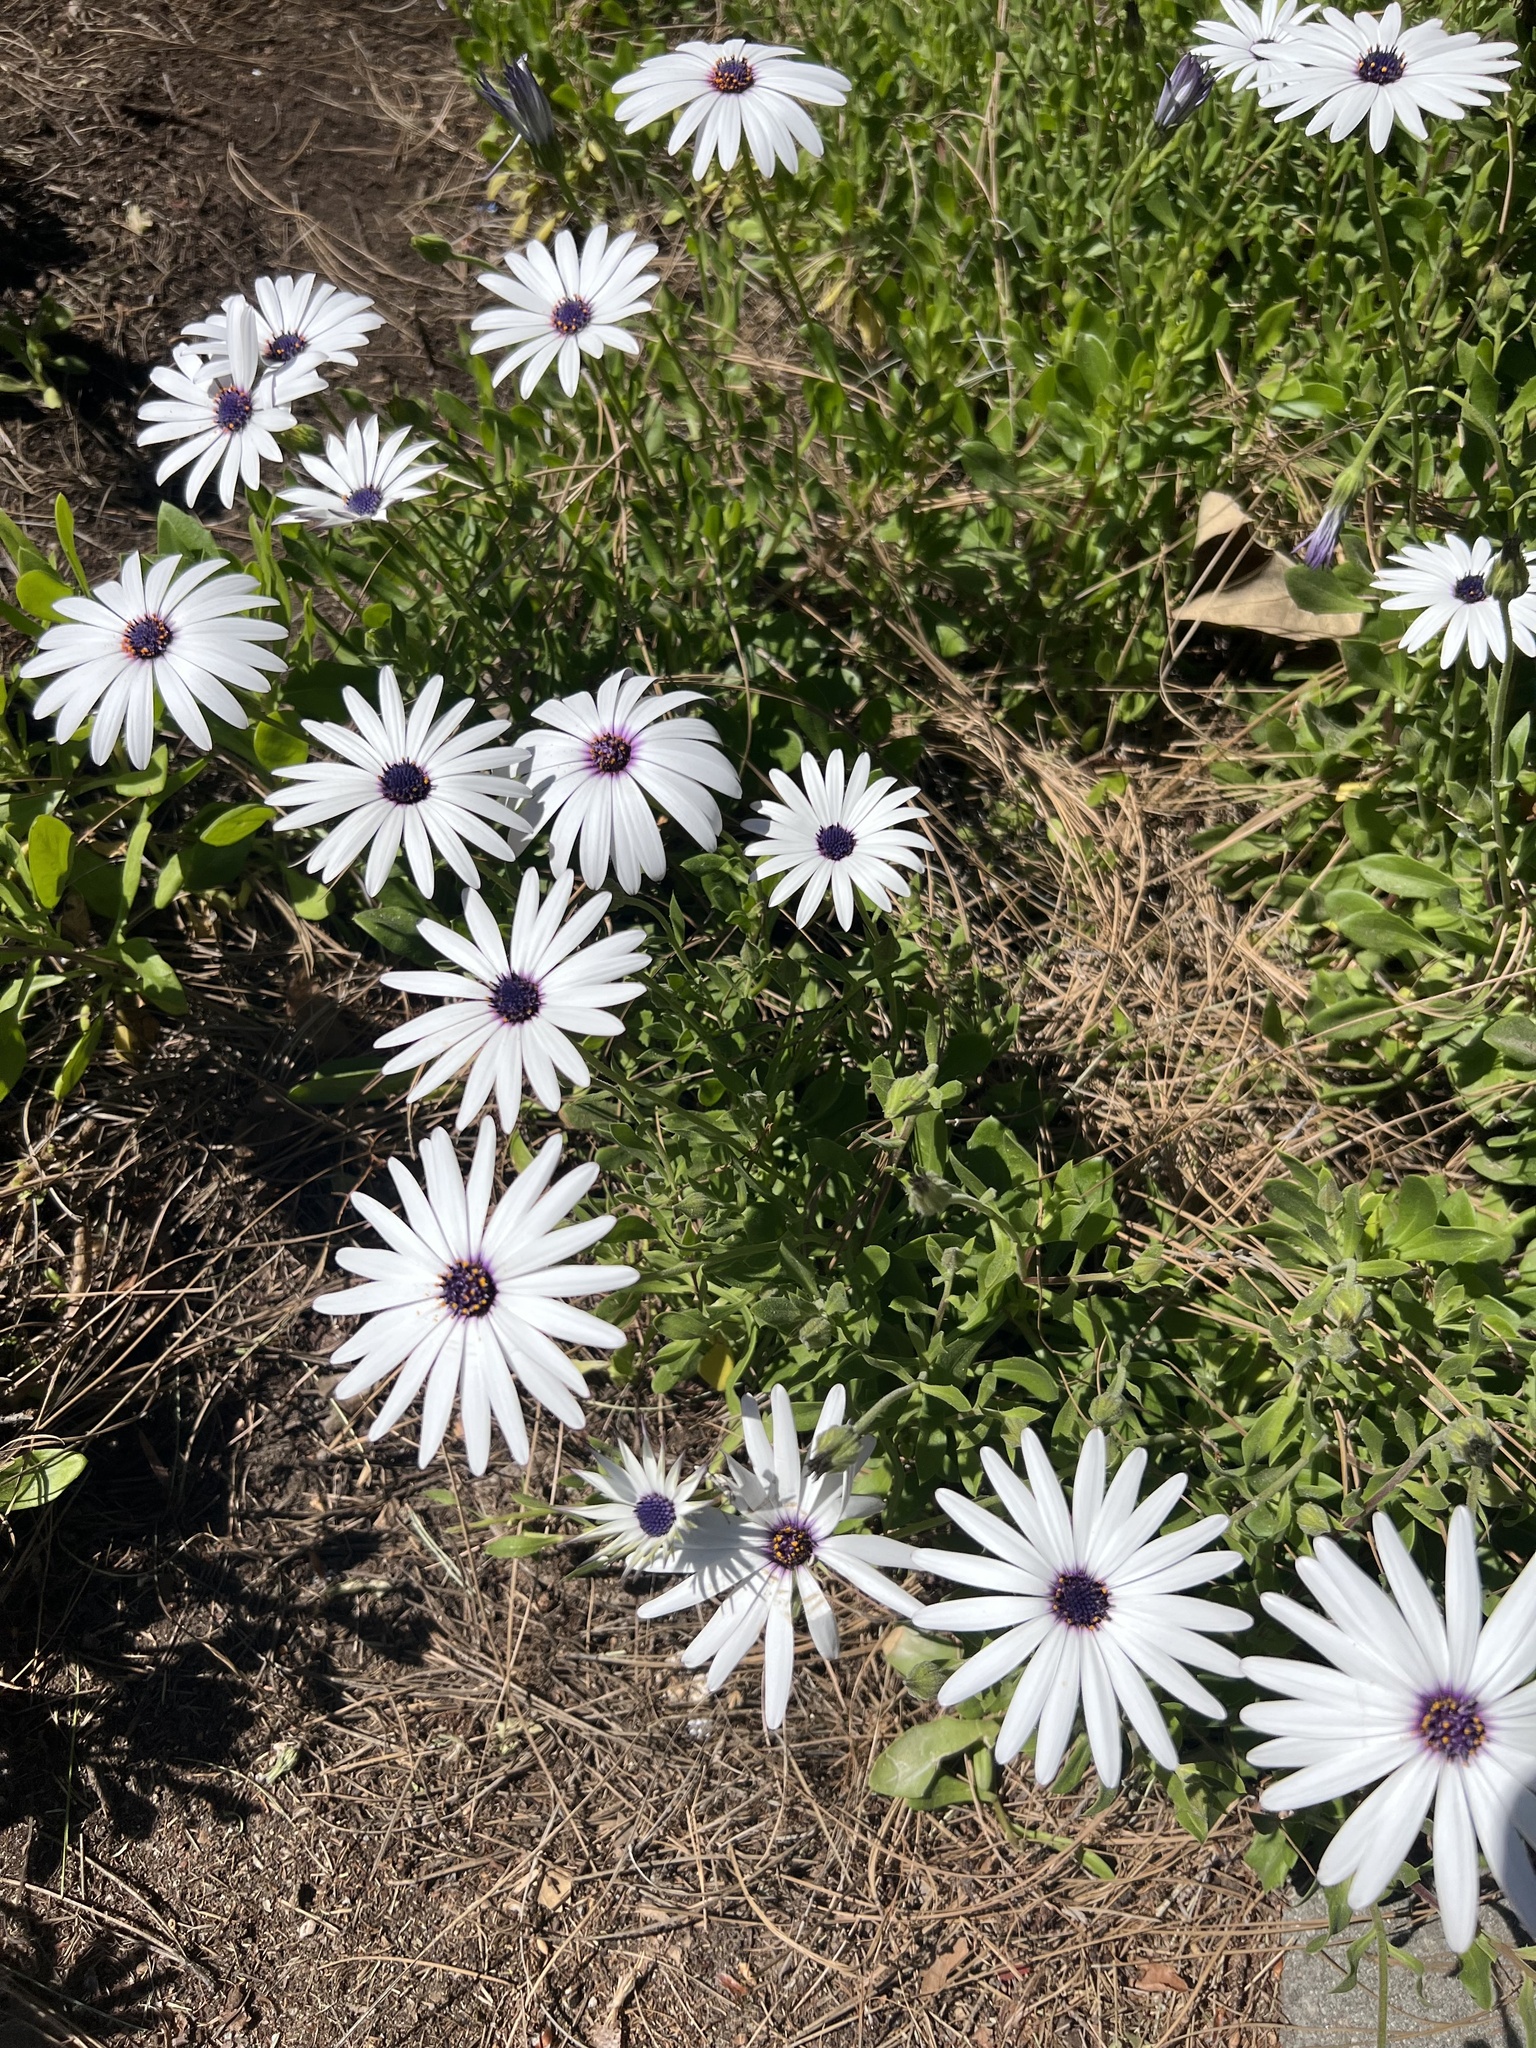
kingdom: Plantae
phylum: Tracheophyta
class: Magnoliopsida
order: Asterales
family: Asteraceae
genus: Dimorphotheca
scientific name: Dimorphotheca fruticosa
